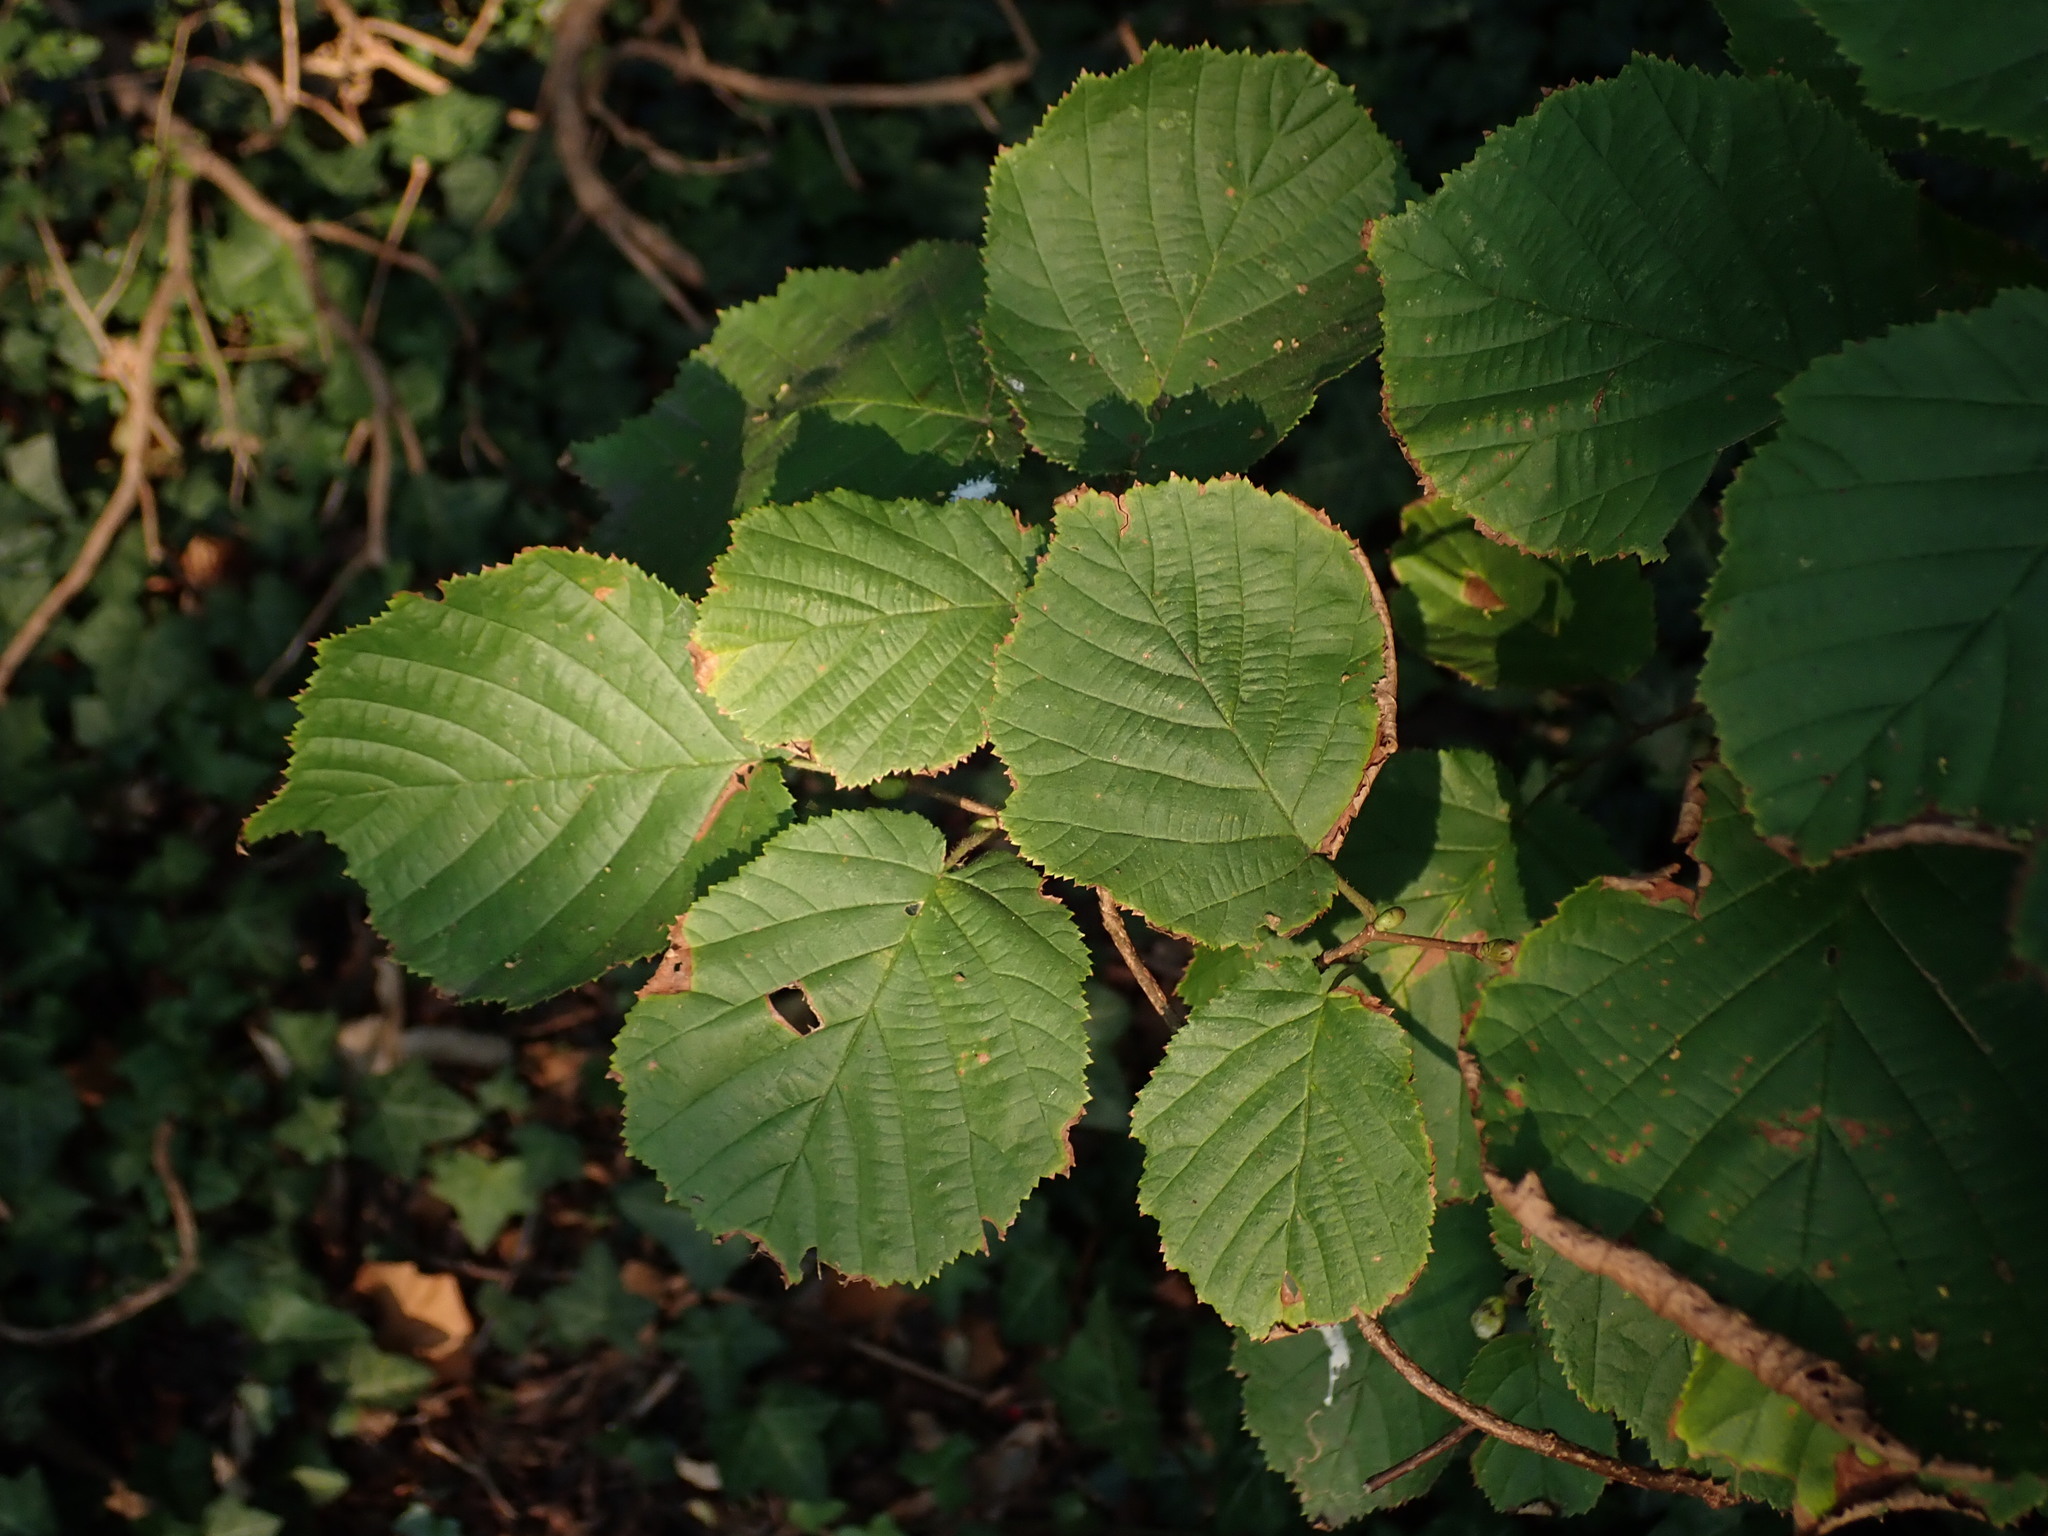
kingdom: Plantae
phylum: Tracheophyta
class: Magnoliopsida
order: Fagales
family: Betulaceae
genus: Corylus
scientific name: Corylus avellana
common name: European hazel
